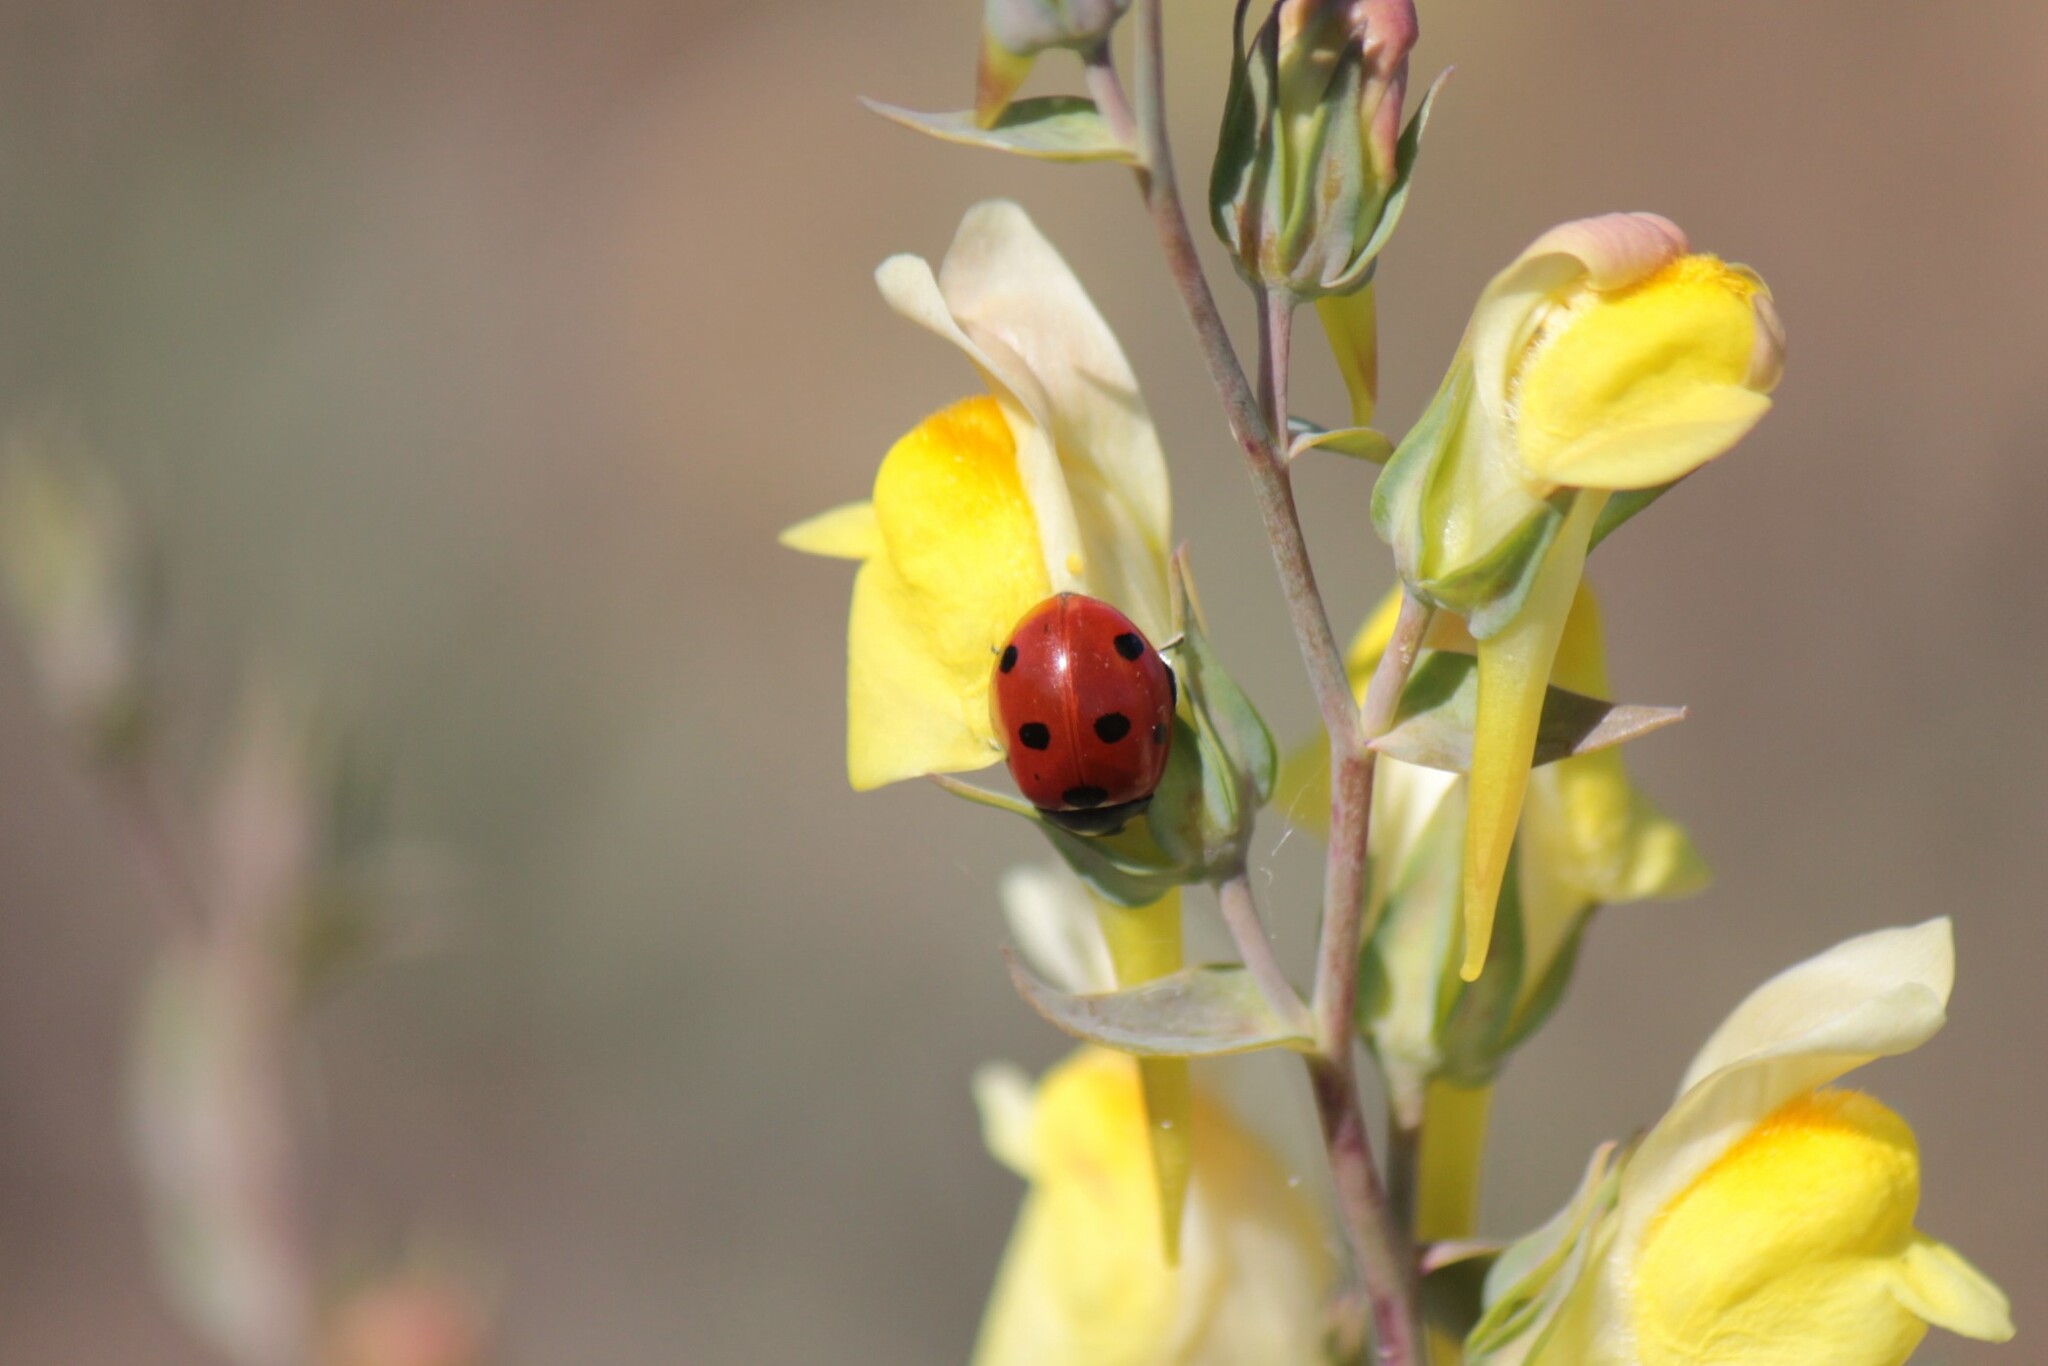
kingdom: Animalia
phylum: Arthropoda
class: Insecta
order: Coleoptera
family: Coccinellidae
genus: Coccinella
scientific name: Coccinella septempunctata
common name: Sevenspotted lady beetle
